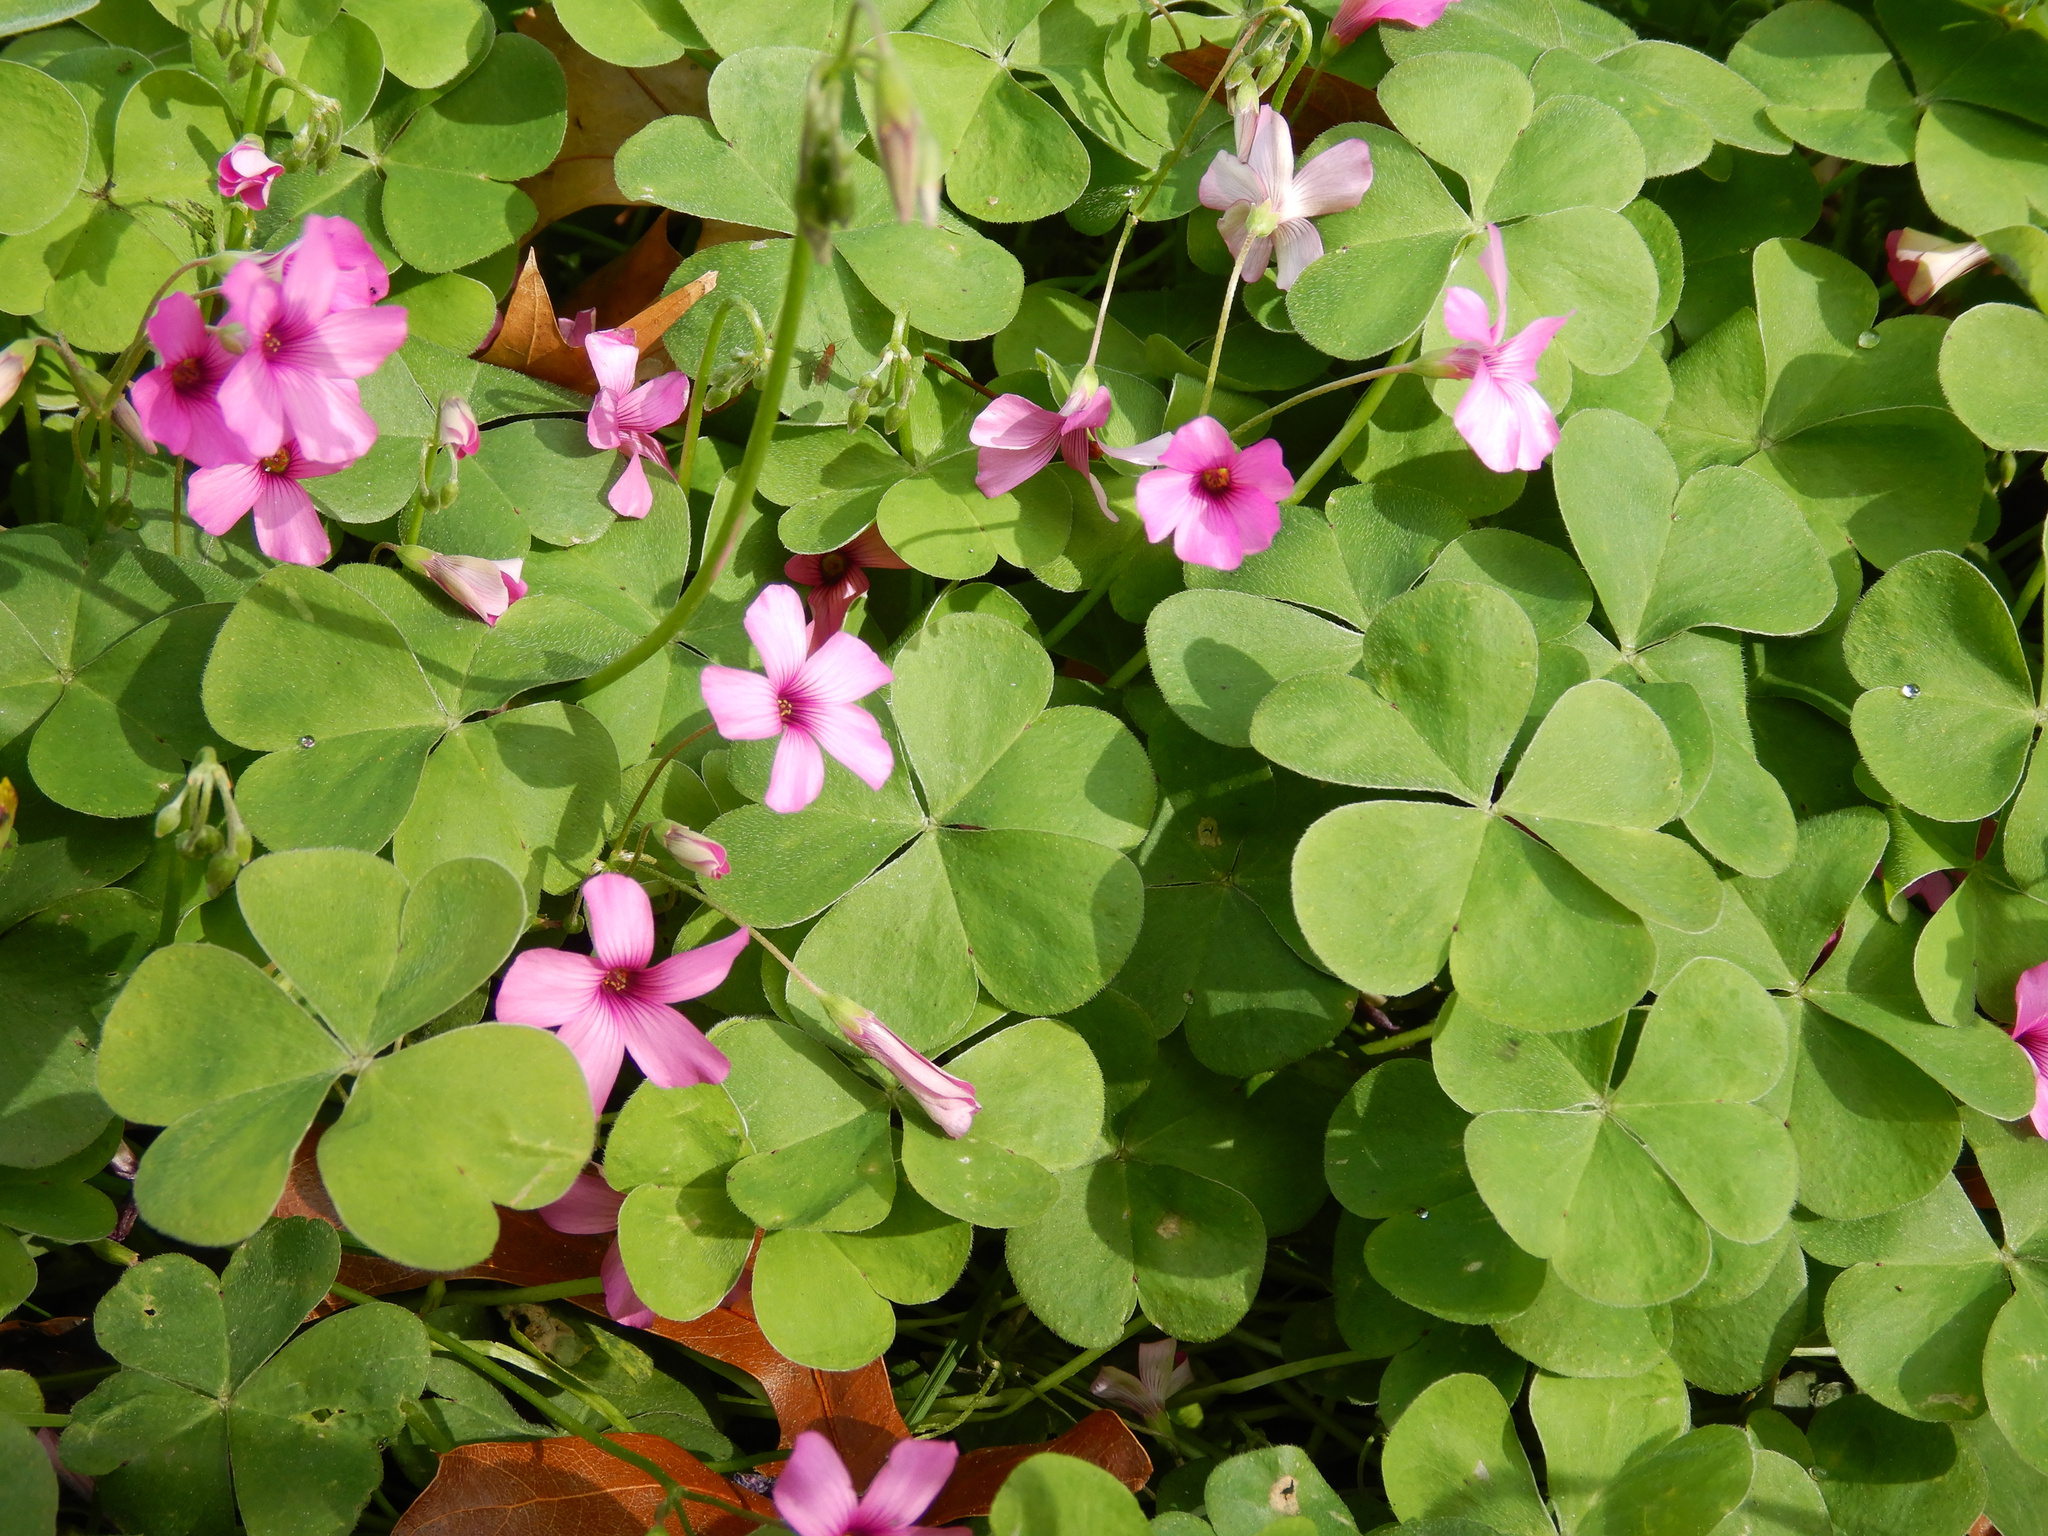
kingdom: Plantae
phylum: Tracheophyta
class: Magnoliopsida
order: Oxalidales
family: Oxalidaceae
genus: Oxalis
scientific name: Oxalis articulata
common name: Pink-sorrel
